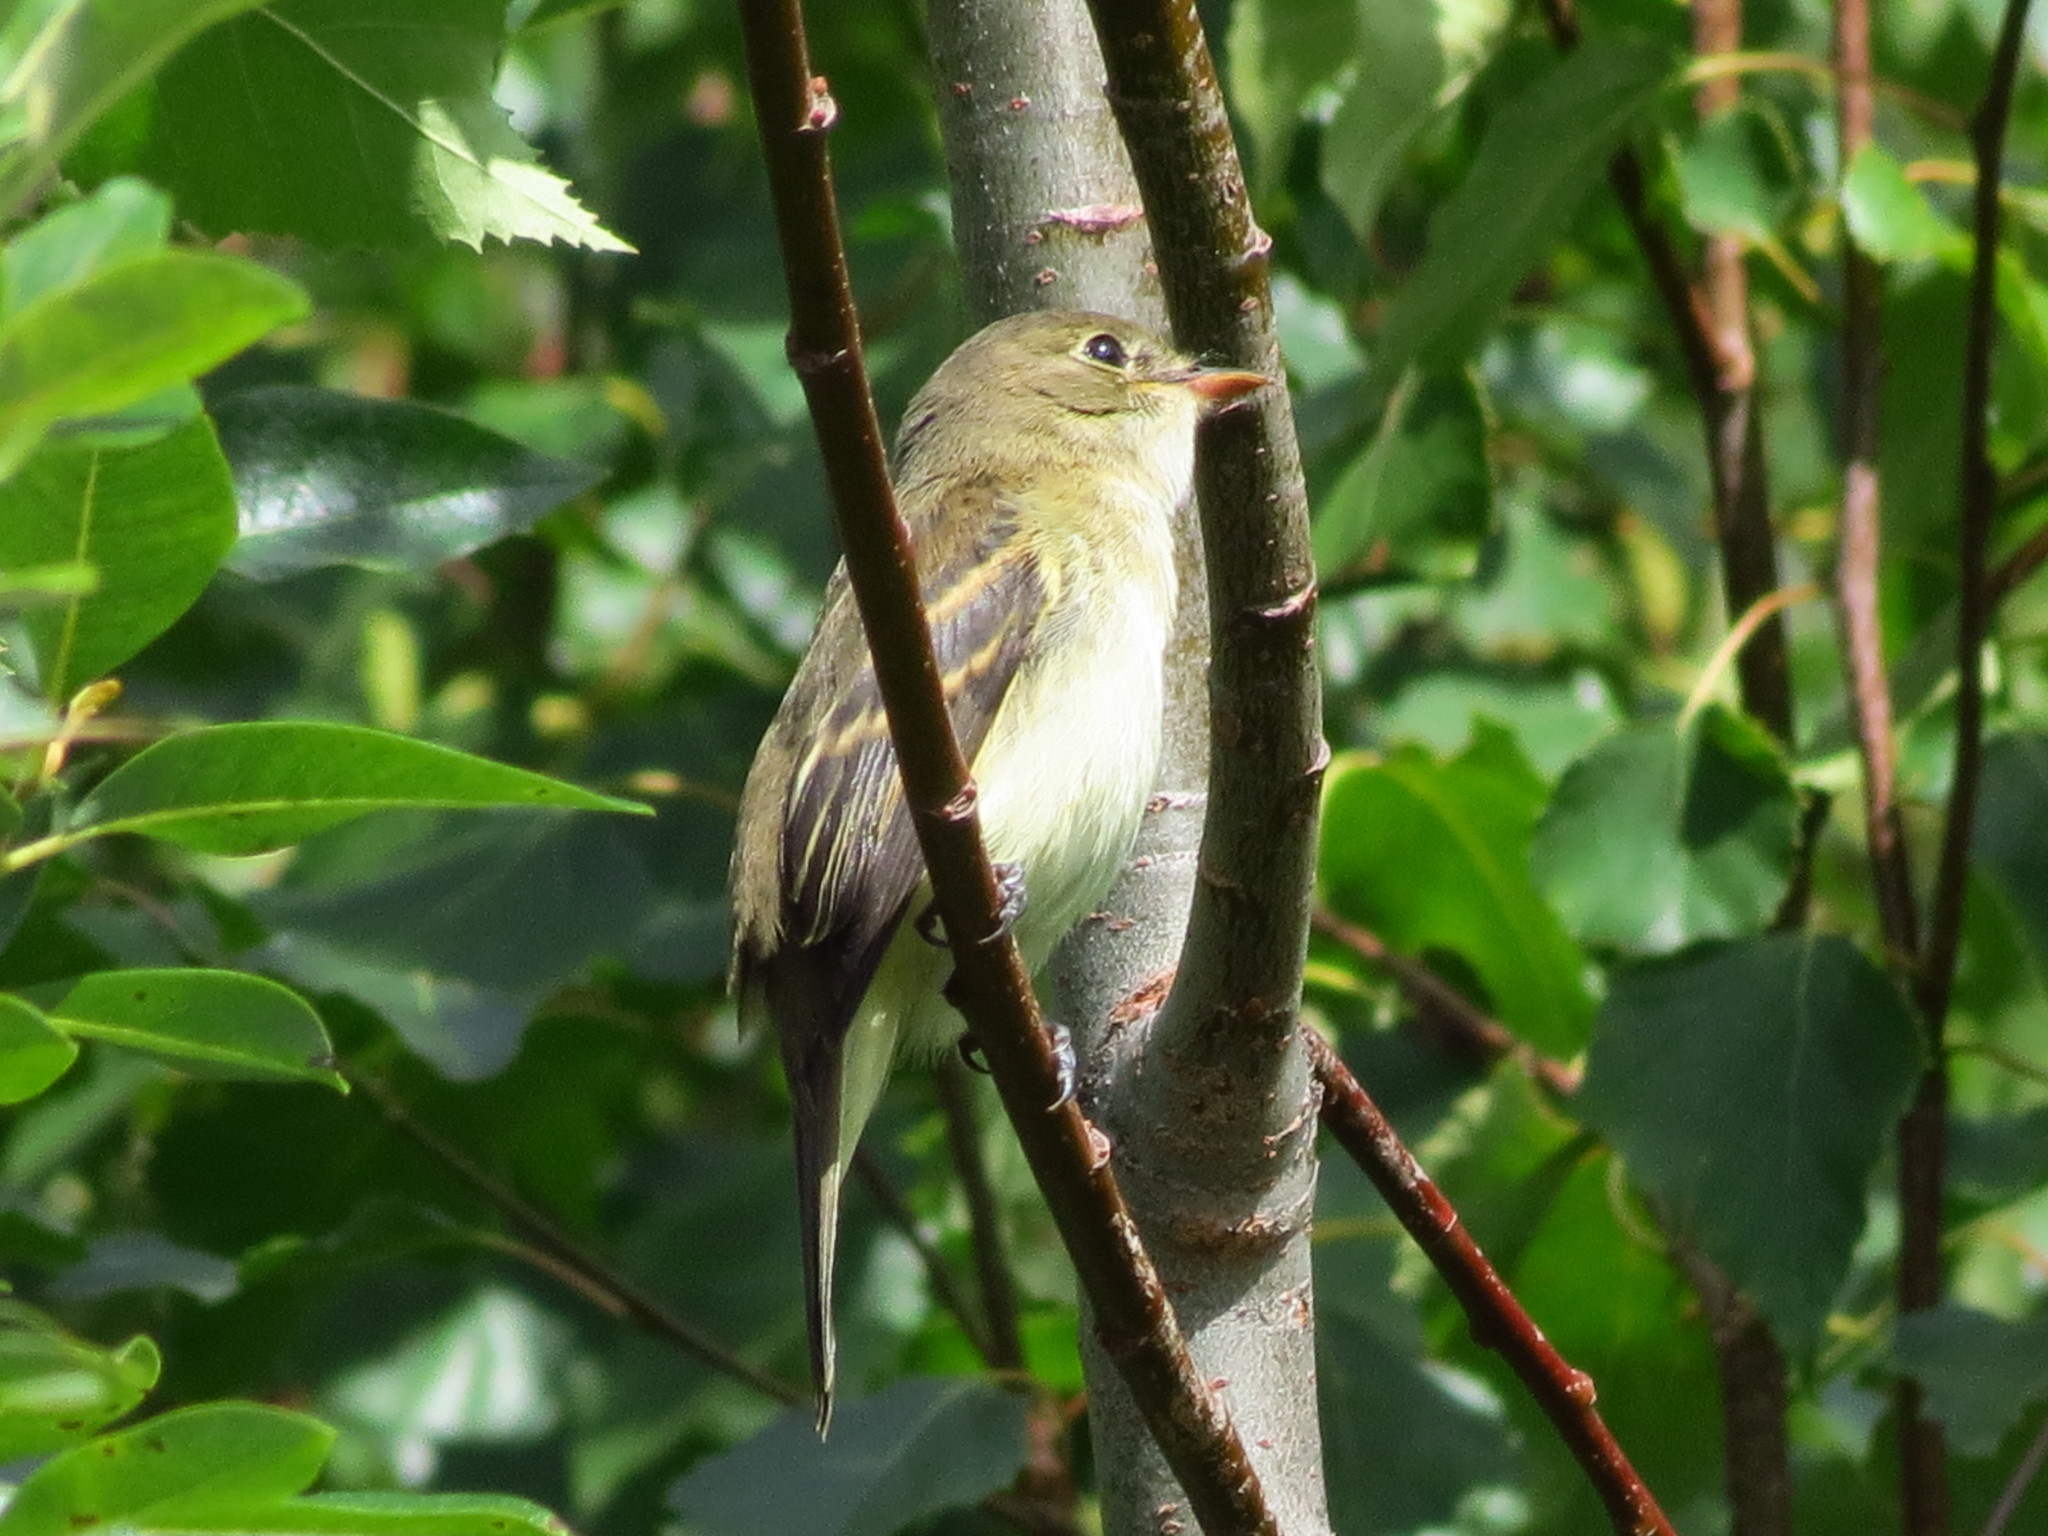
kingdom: Animalia
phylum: Chordata
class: Aves
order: Passeriformes
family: Tyrannidae
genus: Empidonax
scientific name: Empidonax alnorum
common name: Alder flycatcher
